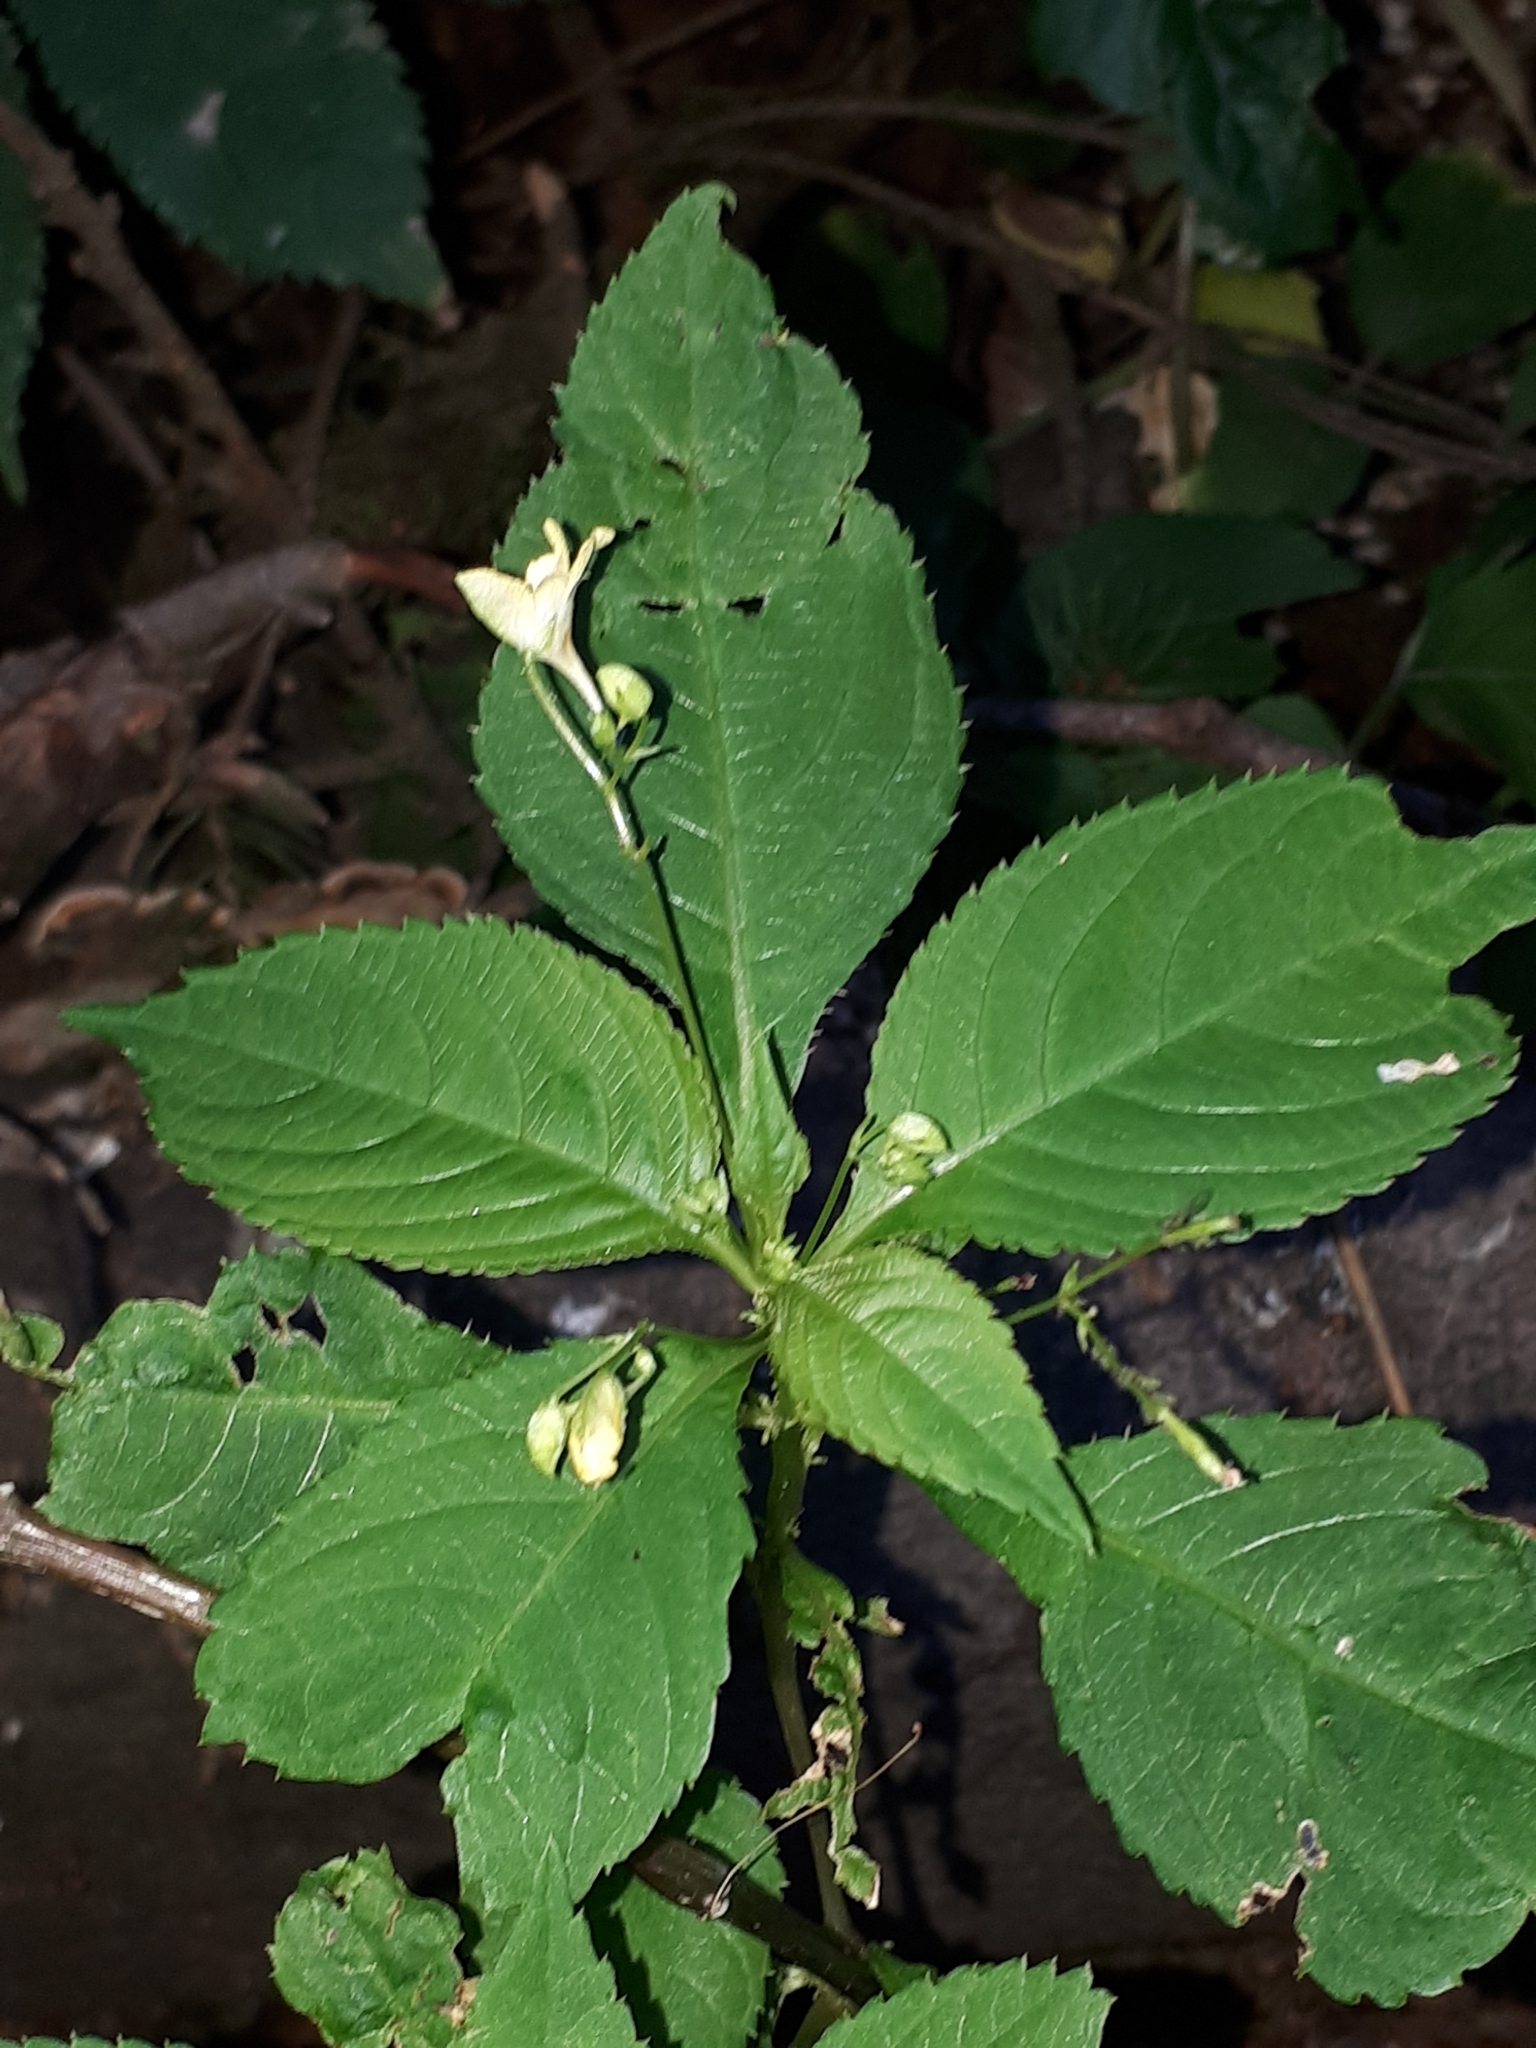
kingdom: Plantae
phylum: Tracheophyta
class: Magnoliopsida
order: Ericales
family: Balsaminaceae
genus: Impatiens
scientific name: Impatiens parviflora
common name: Small balsam
